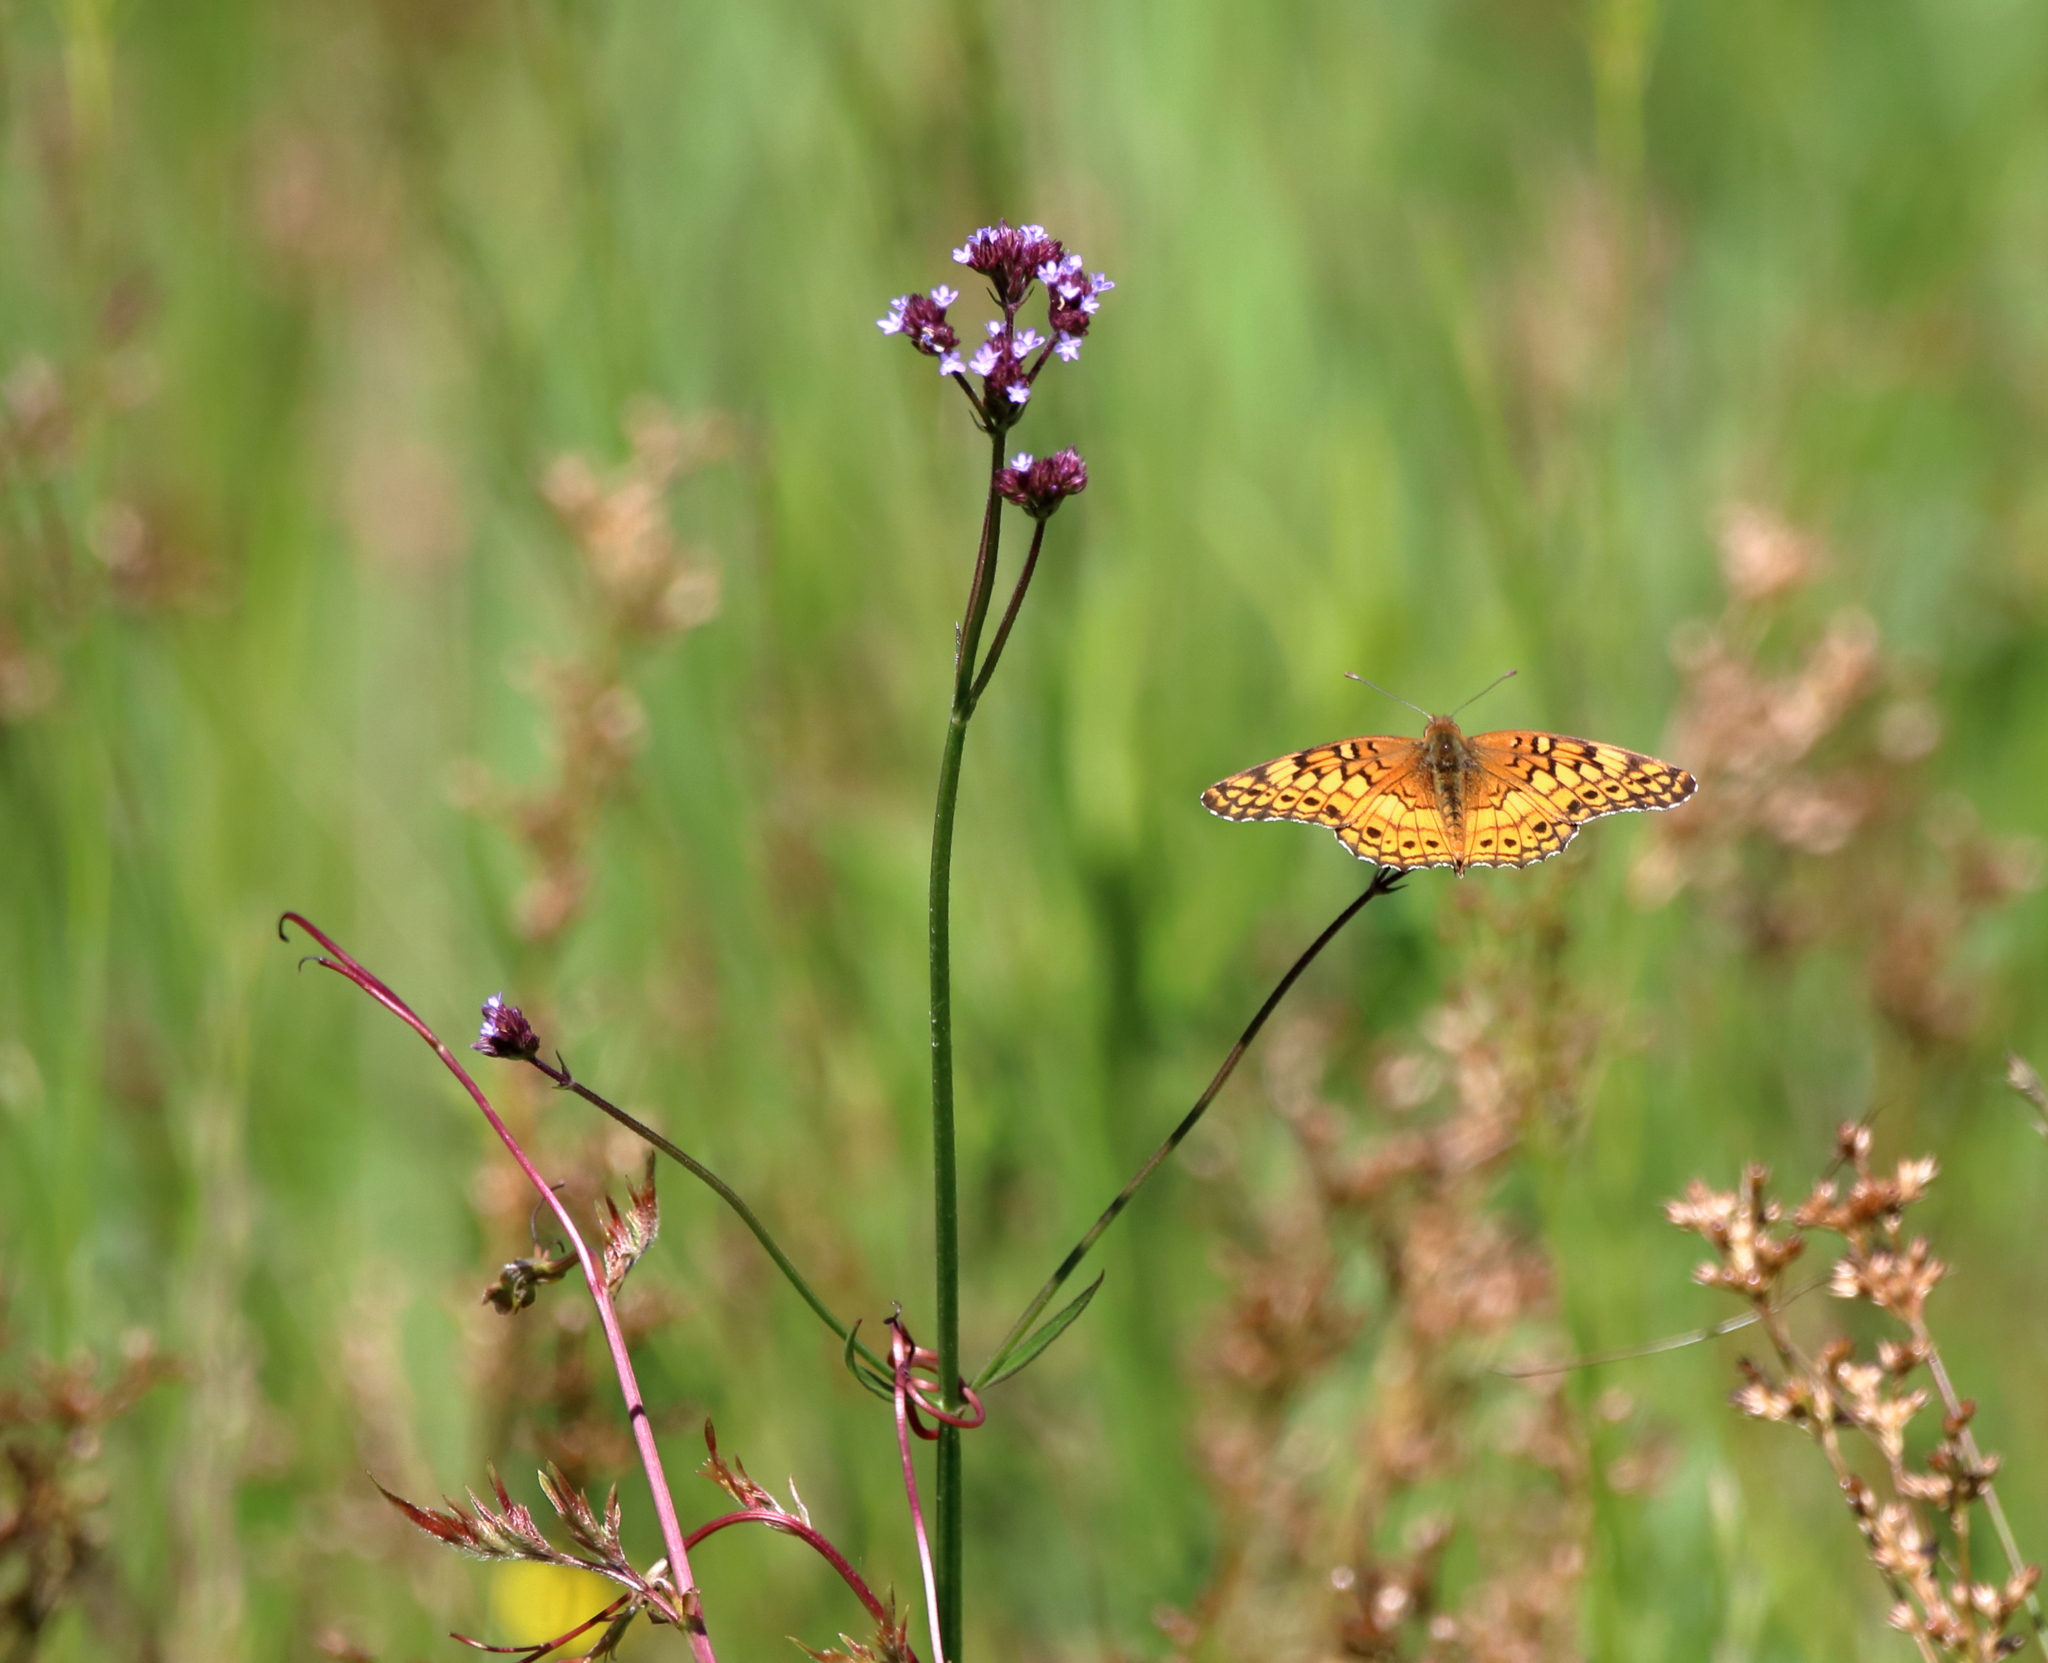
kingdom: Animalia
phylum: Arthropoda
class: Insecta
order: Lepidoptera
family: Nymphalidae
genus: Euptoieta
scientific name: Euptoieta claudia
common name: Variegated fritillary
